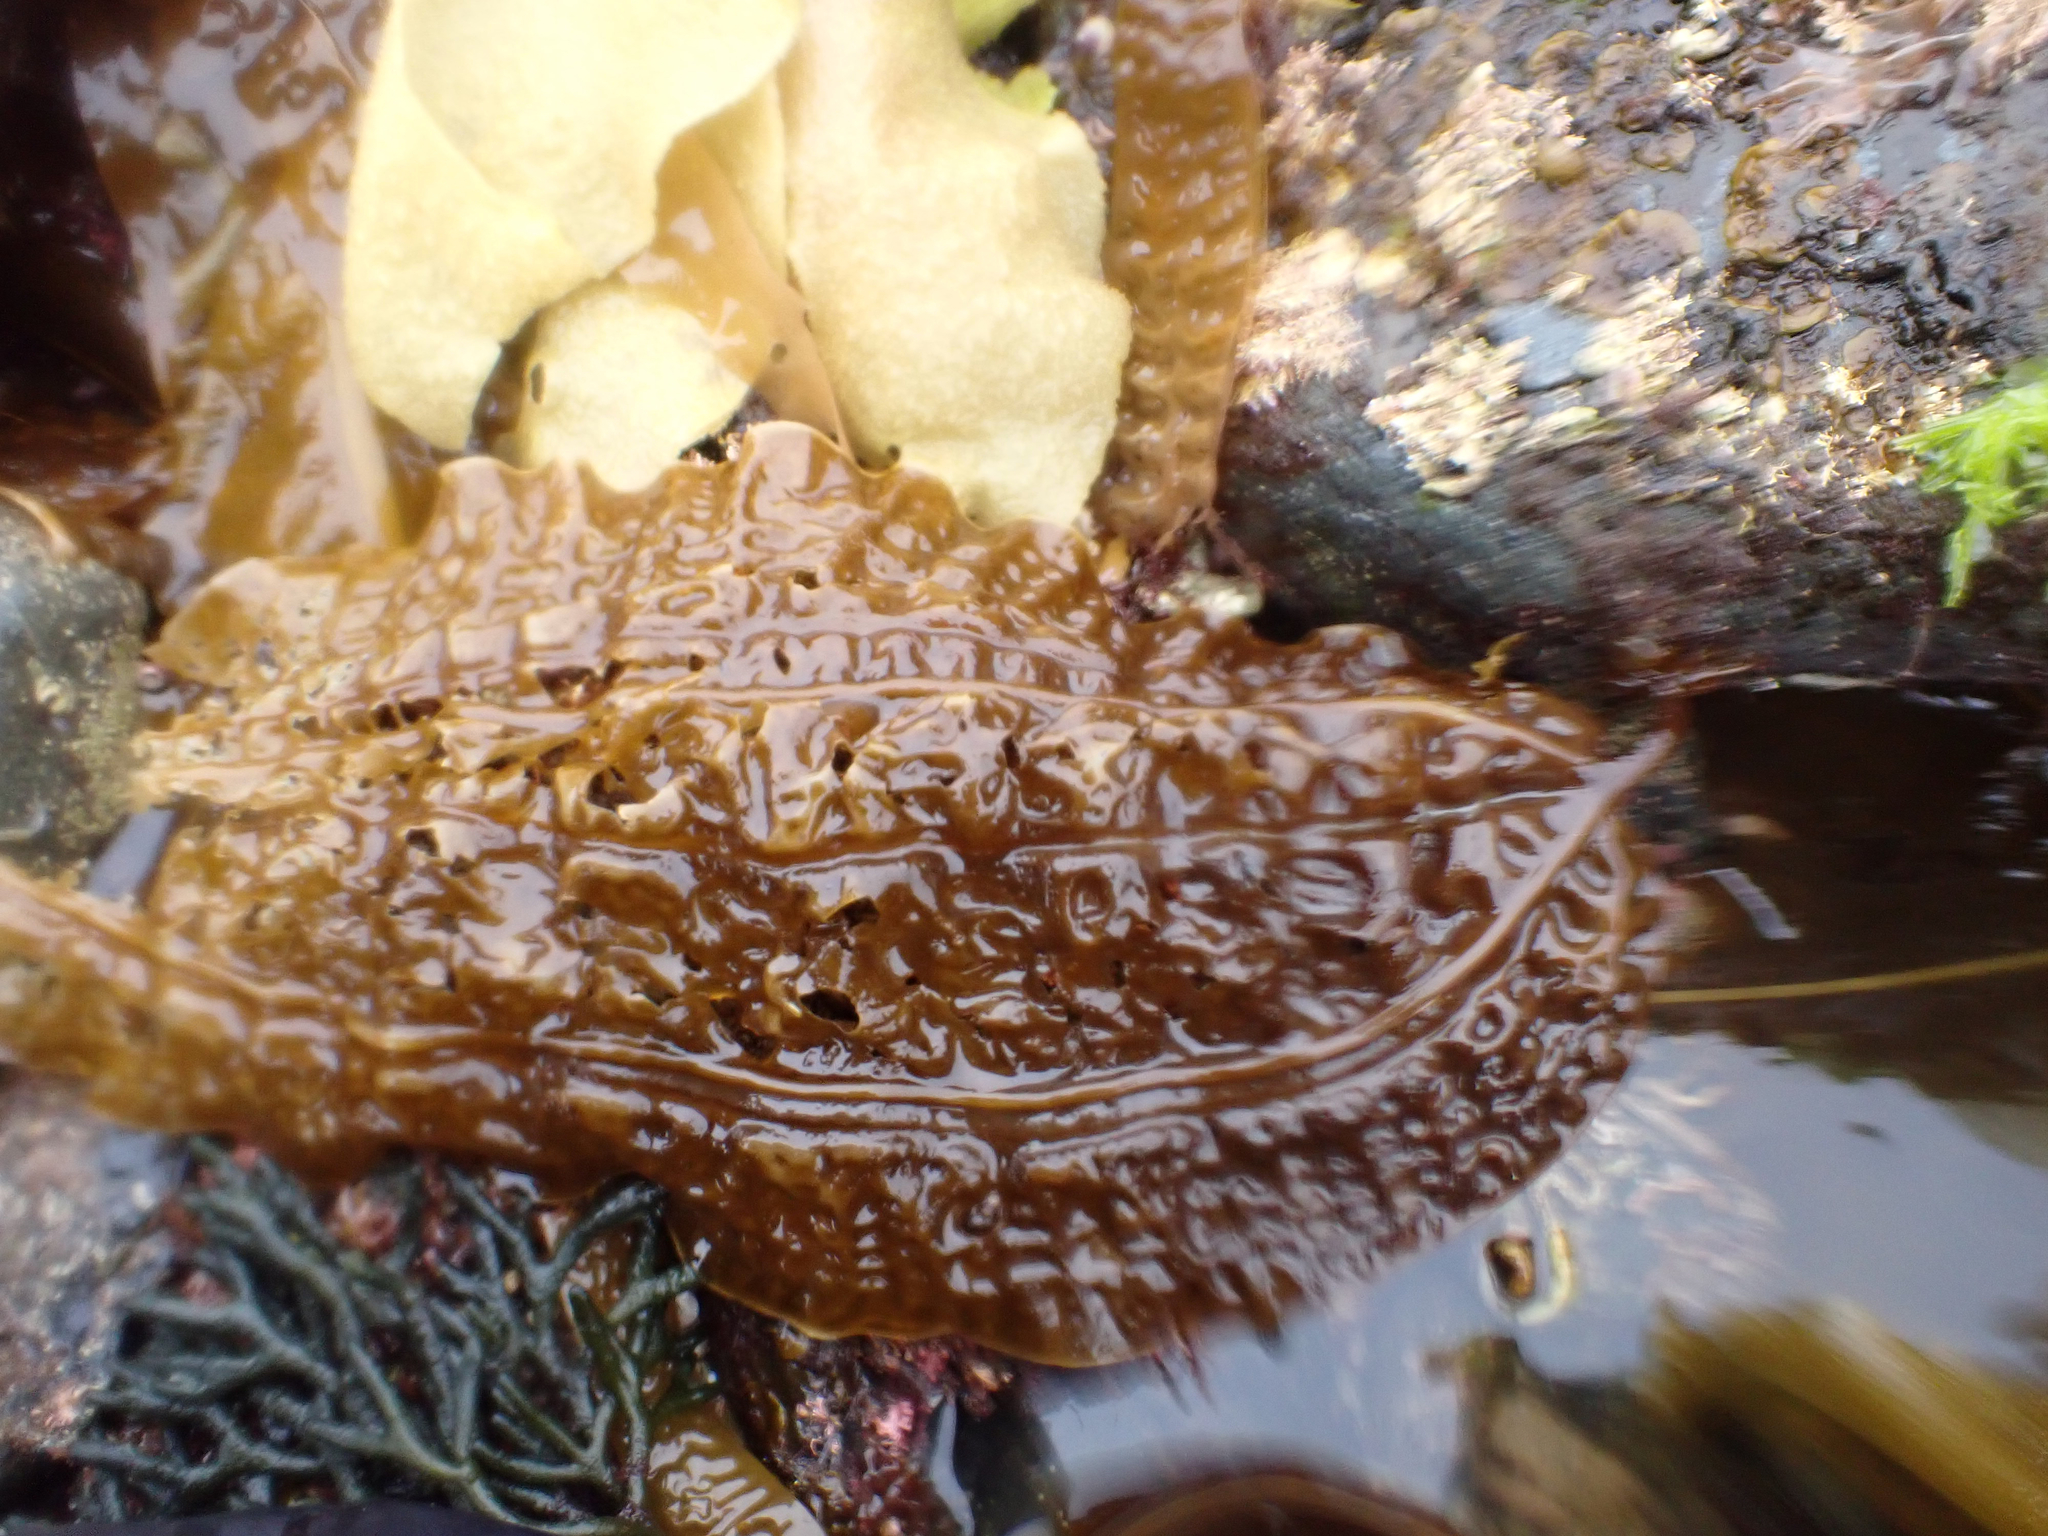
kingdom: Chromista
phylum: Ochrophyta
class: Phaeophyceae
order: Laminariales
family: Costariaceae
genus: Costaria
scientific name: Costaria costata
